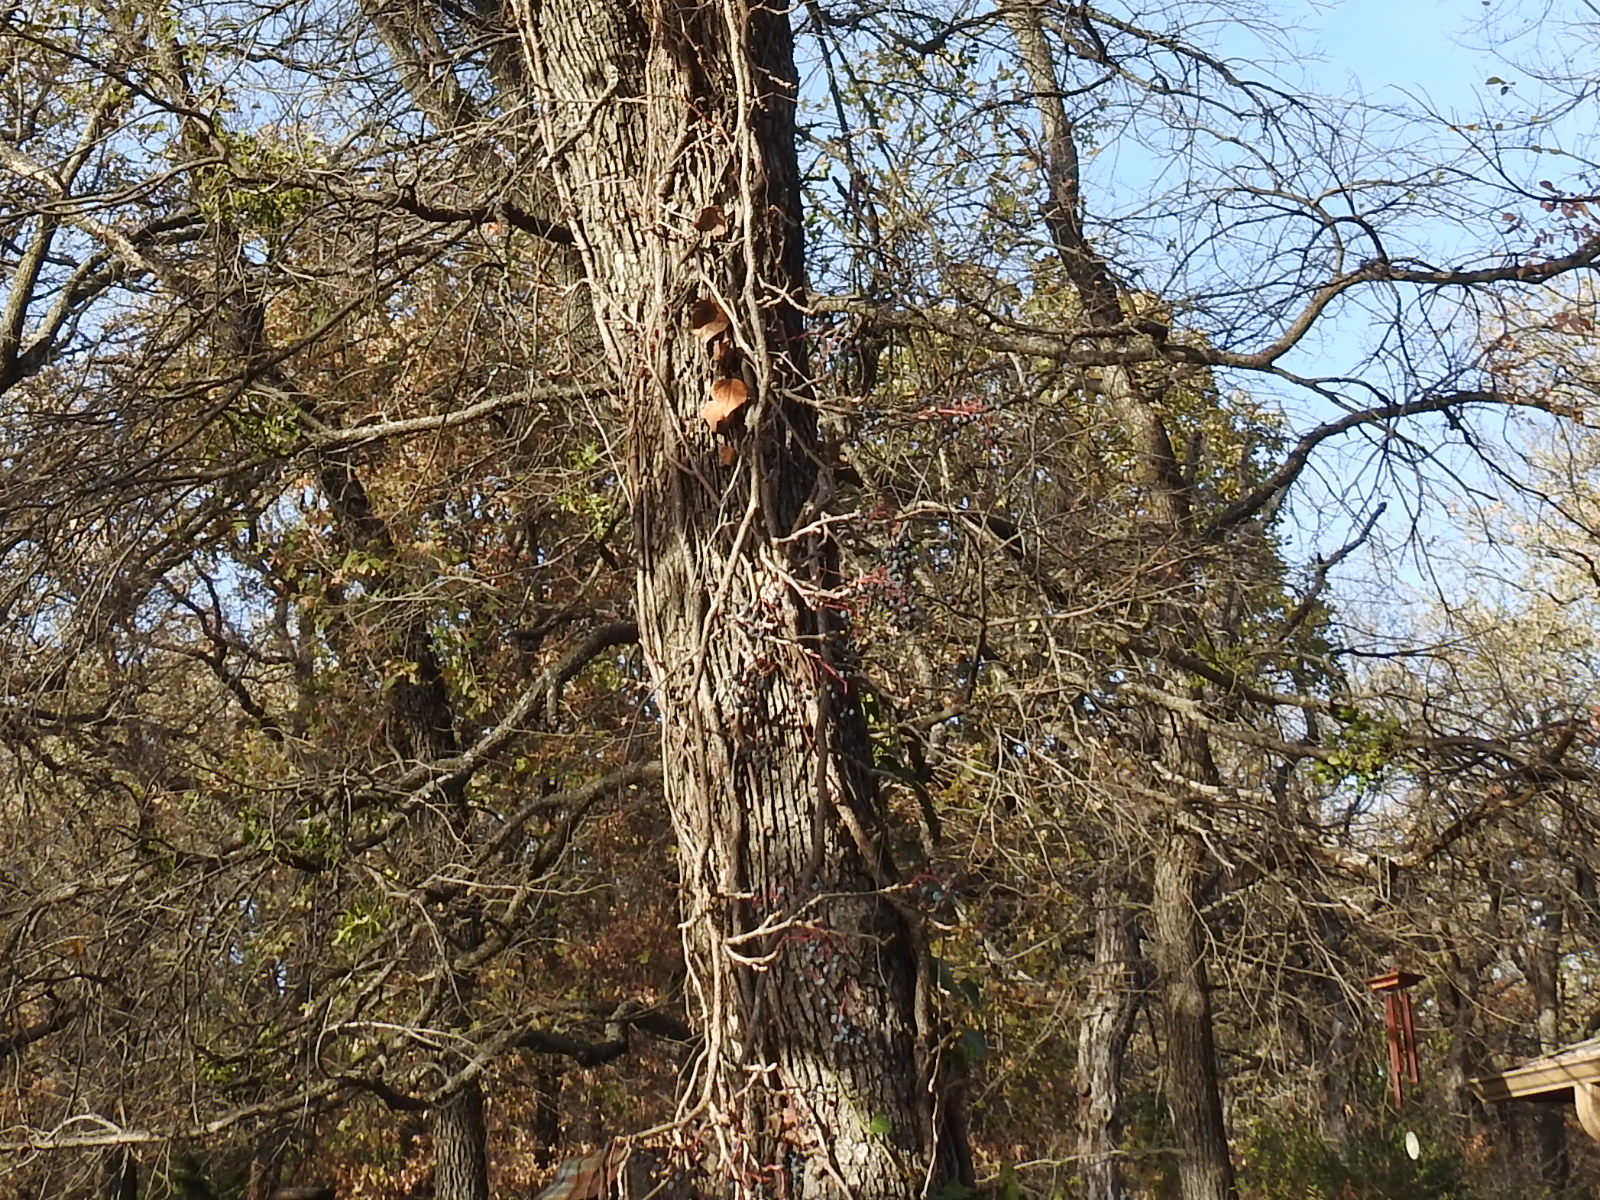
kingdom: Plantae
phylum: Tracheophyta
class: Magnoliopsida
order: Vitales
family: Vitaceae
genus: Parthenocissus
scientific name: Parthenocissus quinquefolia
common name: Virginia-creeper
